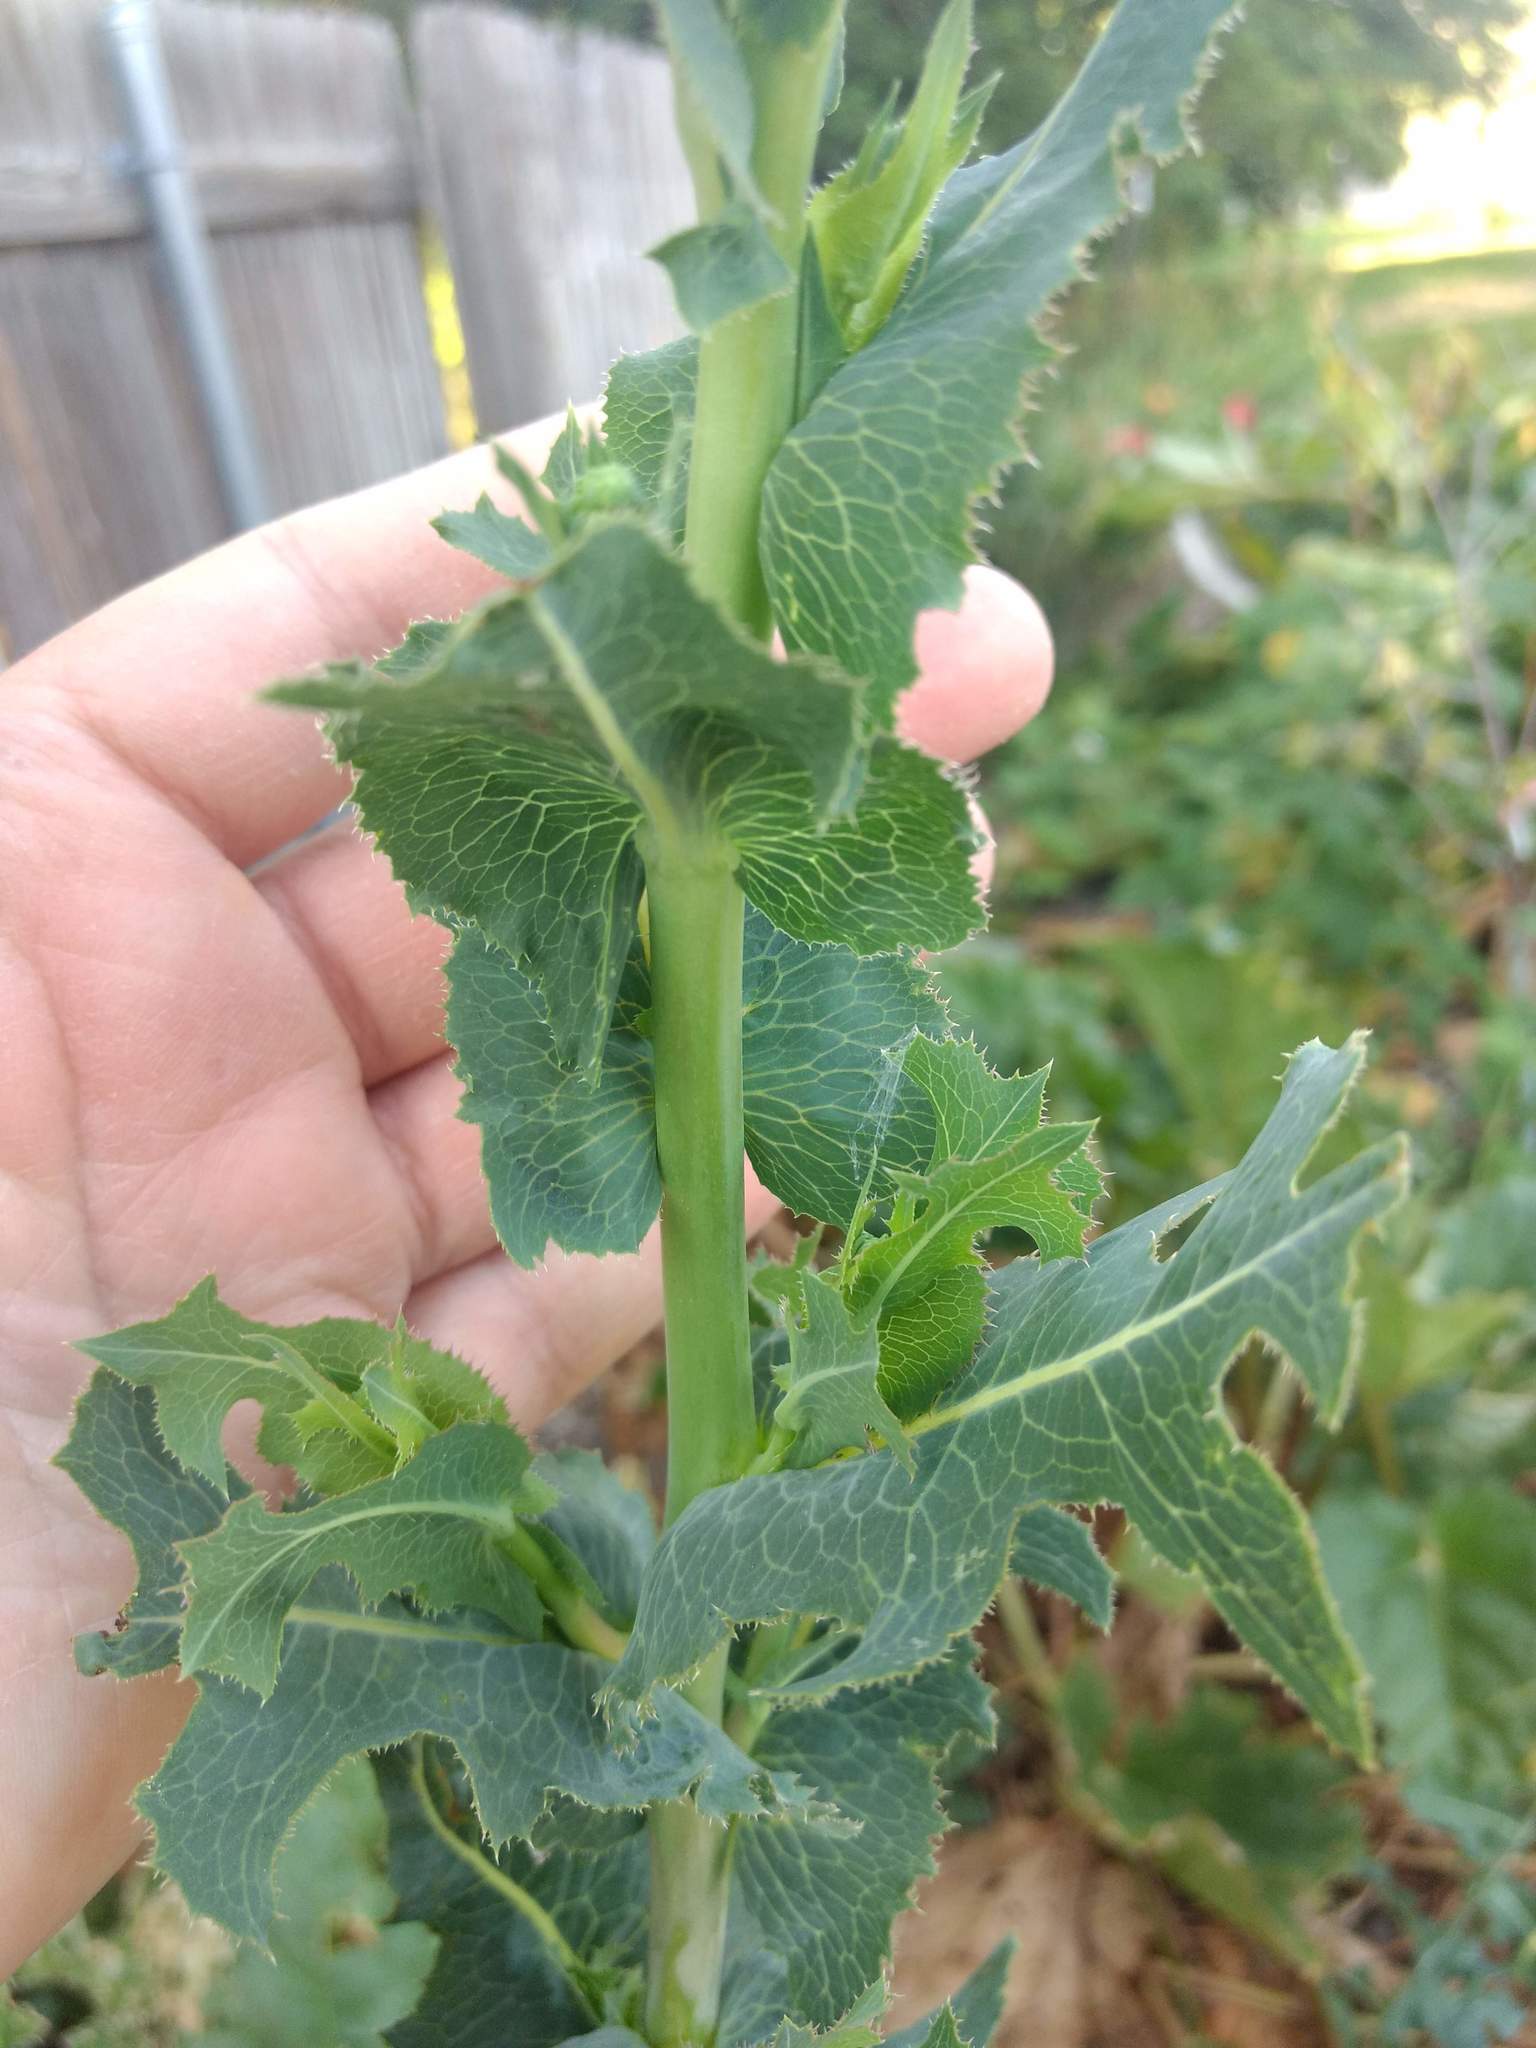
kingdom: Plantae
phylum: Tracheophyta
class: Magnoliopsida
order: Asterales
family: Asteraceae
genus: Lactuca
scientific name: Lactuca serriola
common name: Prickly lettuce
